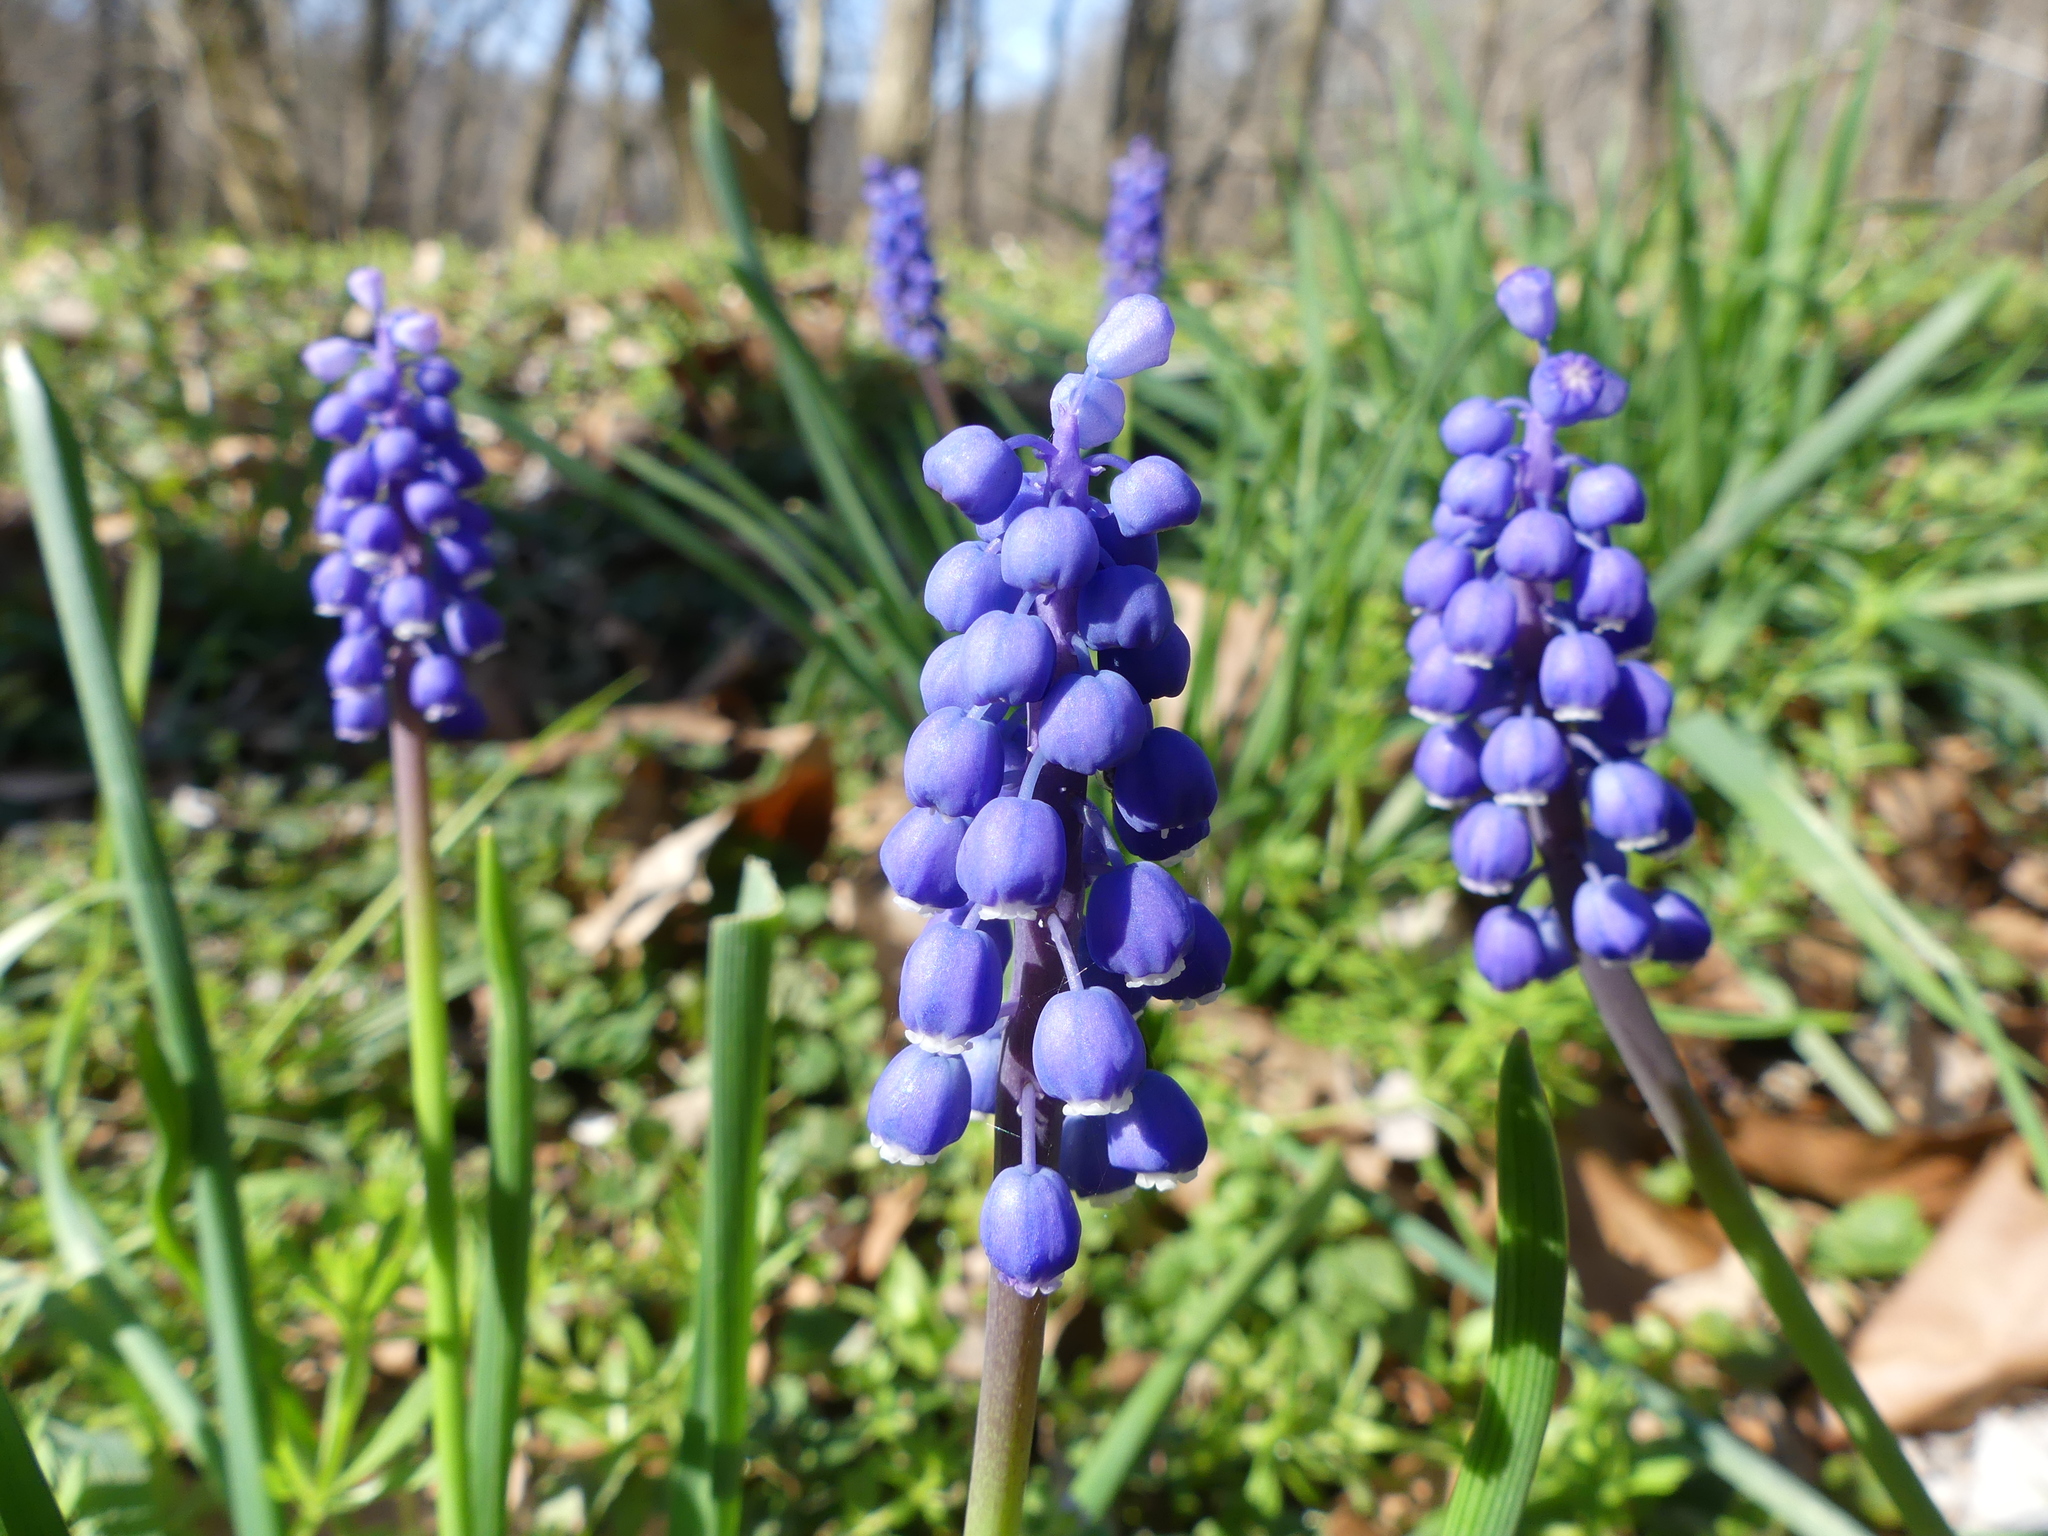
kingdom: Plantae
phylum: Tracheophyta
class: Liliopsida
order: Asparagales
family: Asparagaceae
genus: Muscari
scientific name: Muscari botryoides
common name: Compact grape-hyacinth
